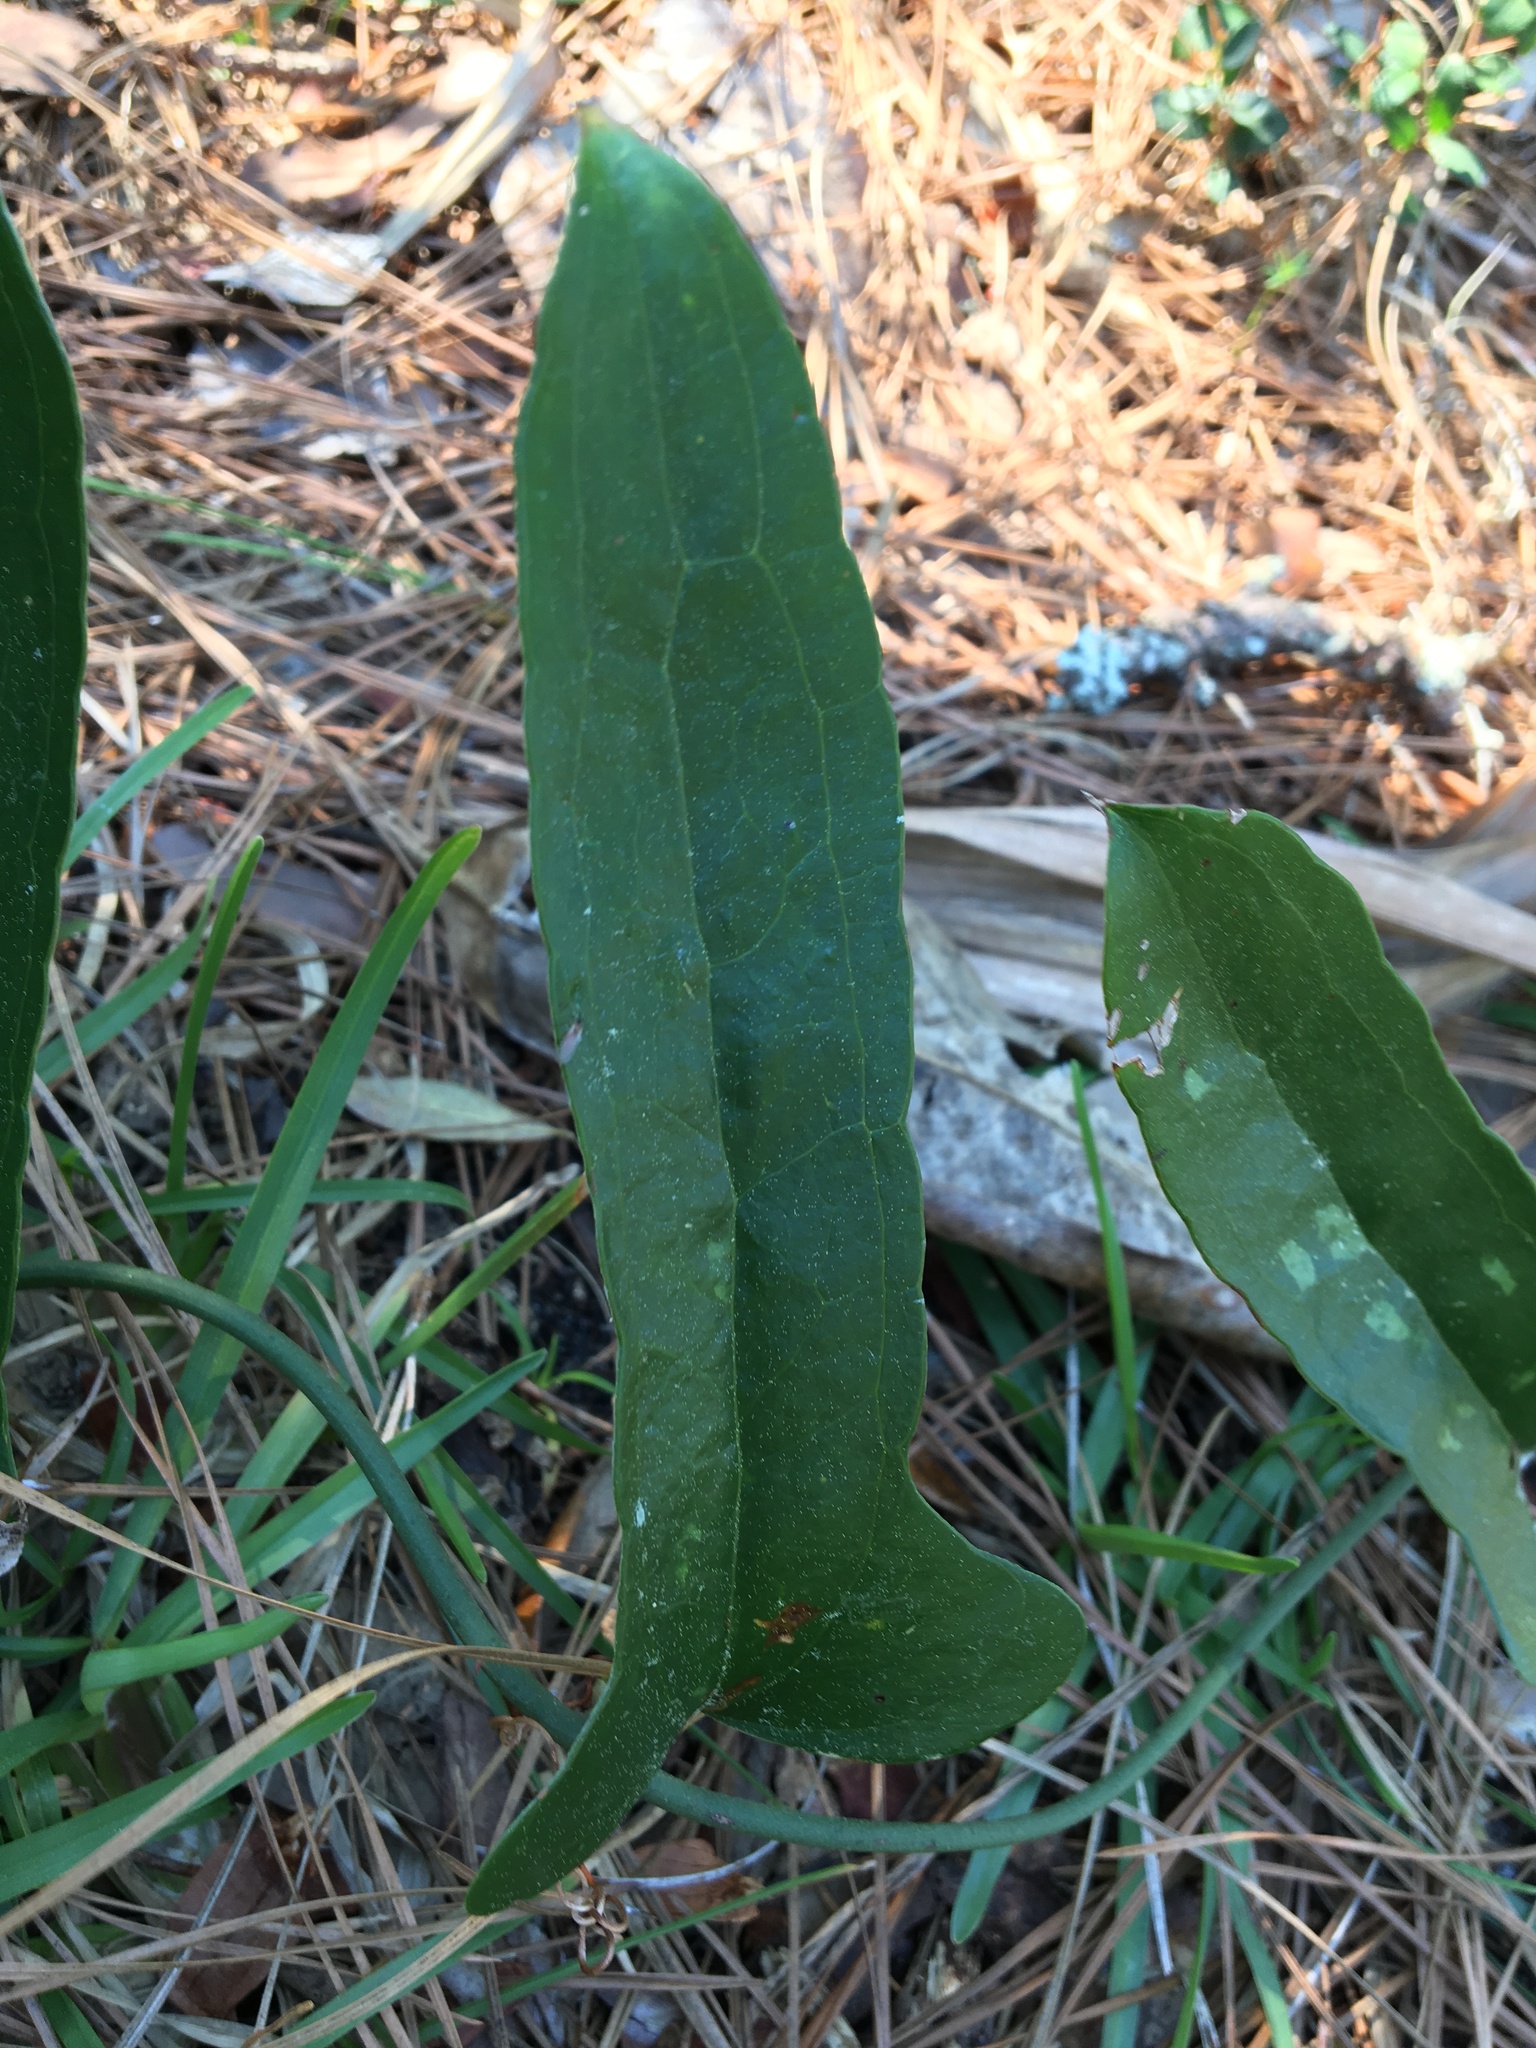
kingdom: Plantae
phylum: Tracheophyta
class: Liliopsida
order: Liliales
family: Smilacaceae
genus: Smilax
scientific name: Smilax auriculata
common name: Wild bamboo
